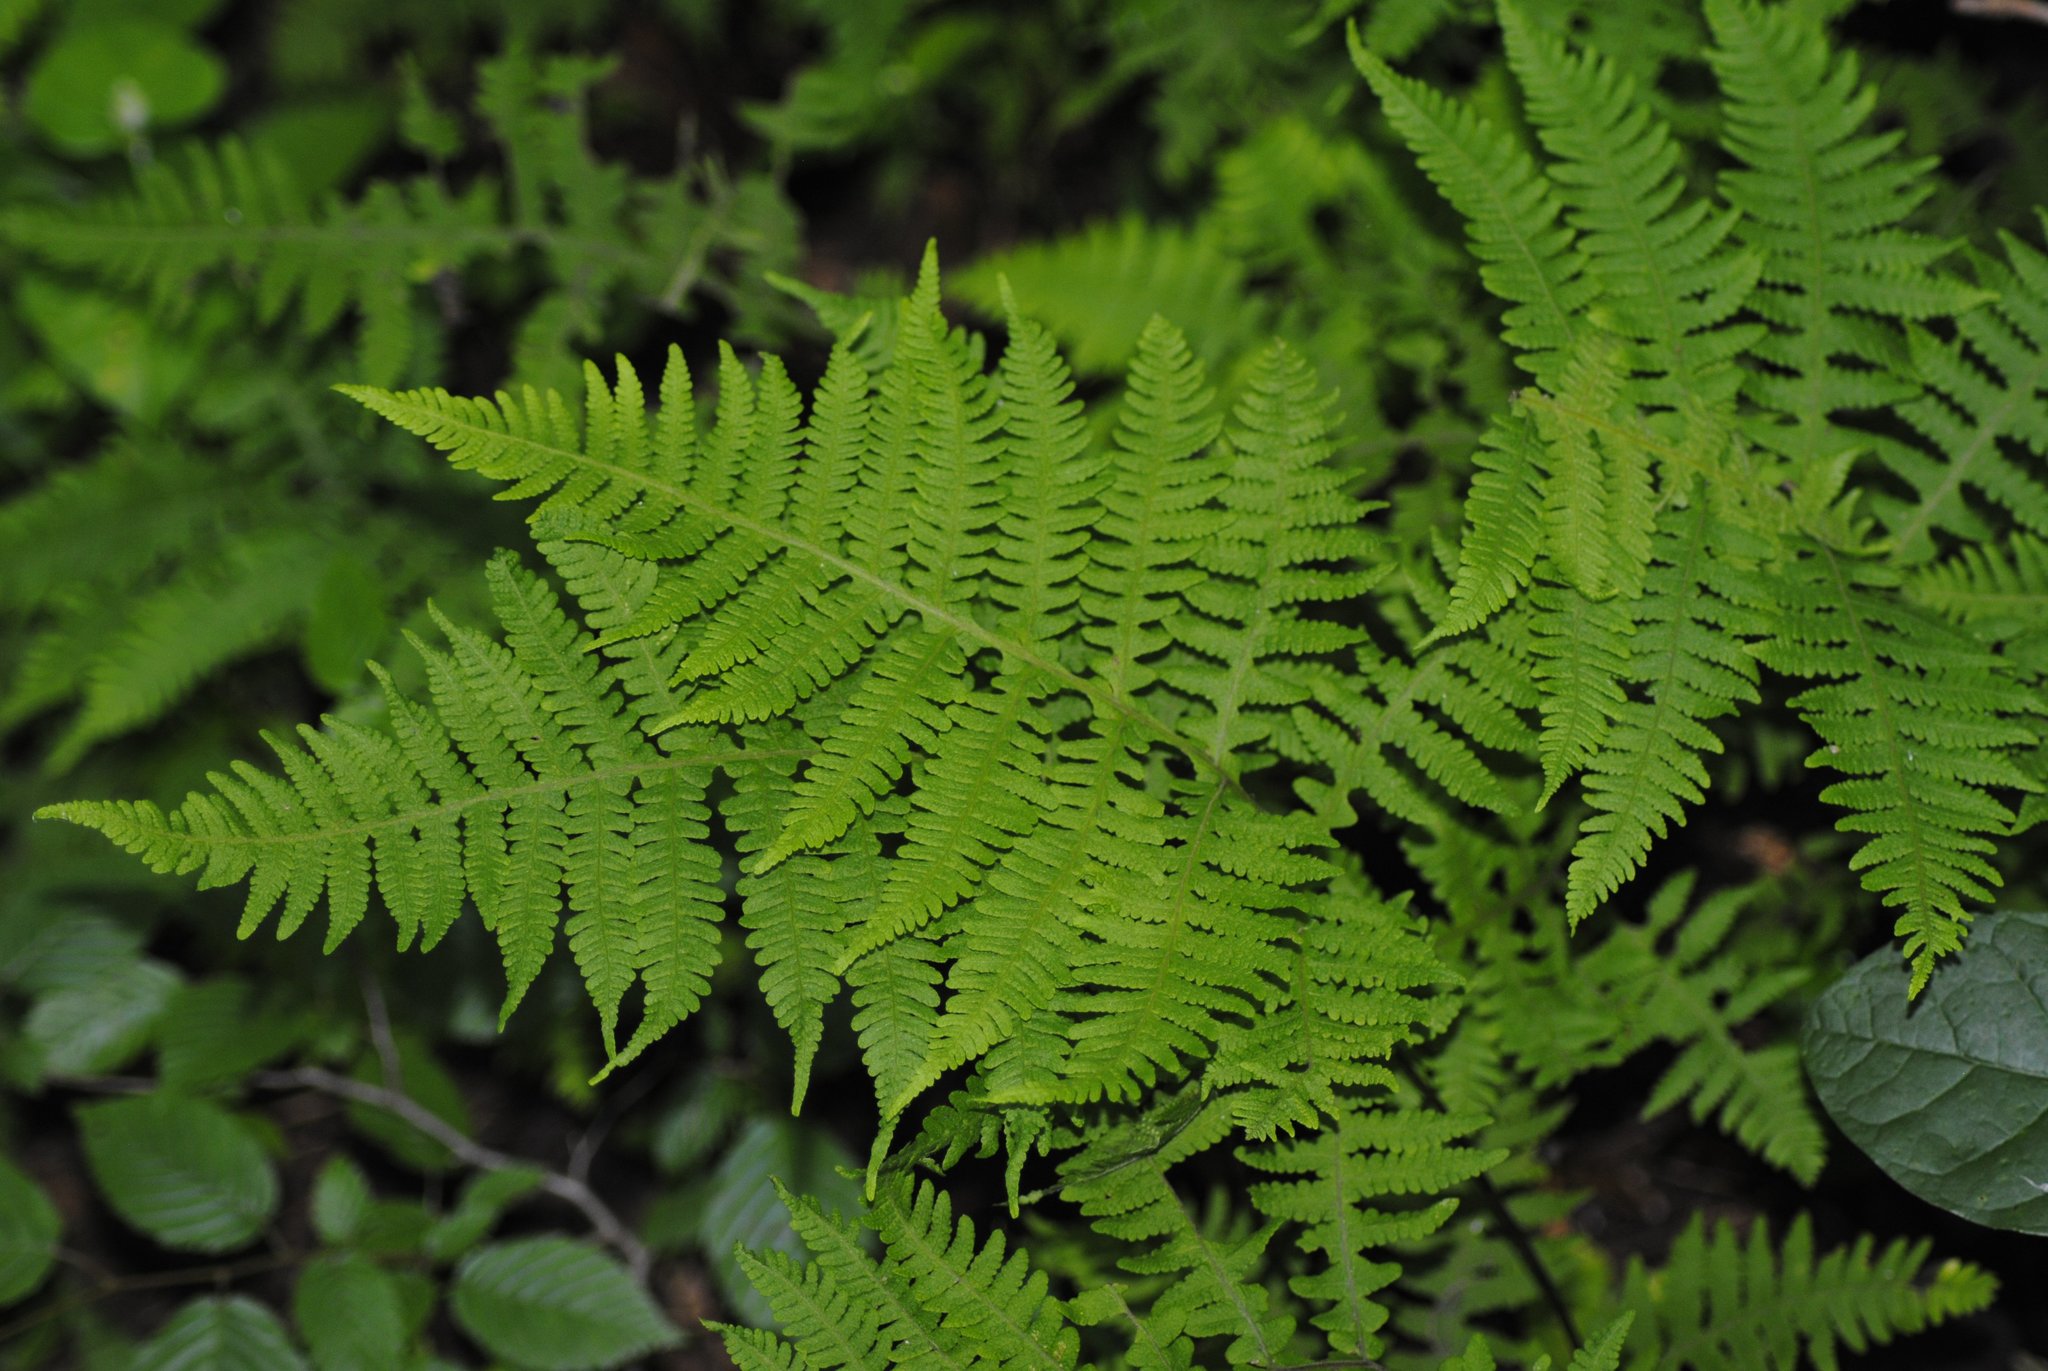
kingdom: Plantae
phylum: Tracheophyta
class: Polypodiopsida
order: Polypodiales
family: Thelypteridaceae
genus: Phegopteris
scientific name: Phegopteris hexagonoptera
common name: Broad beech fern
